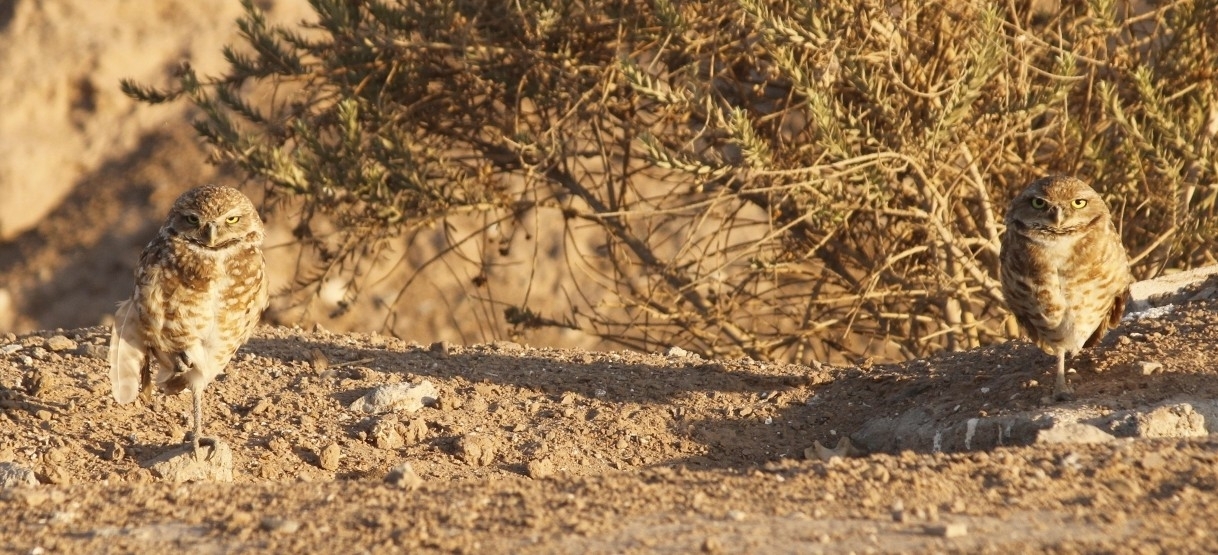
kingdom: Animalia
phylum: Chordata
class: Aves
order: Strigiformes
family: Strigidae
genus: Athene
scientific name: Athene cunicularia
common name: Burrowing owl
